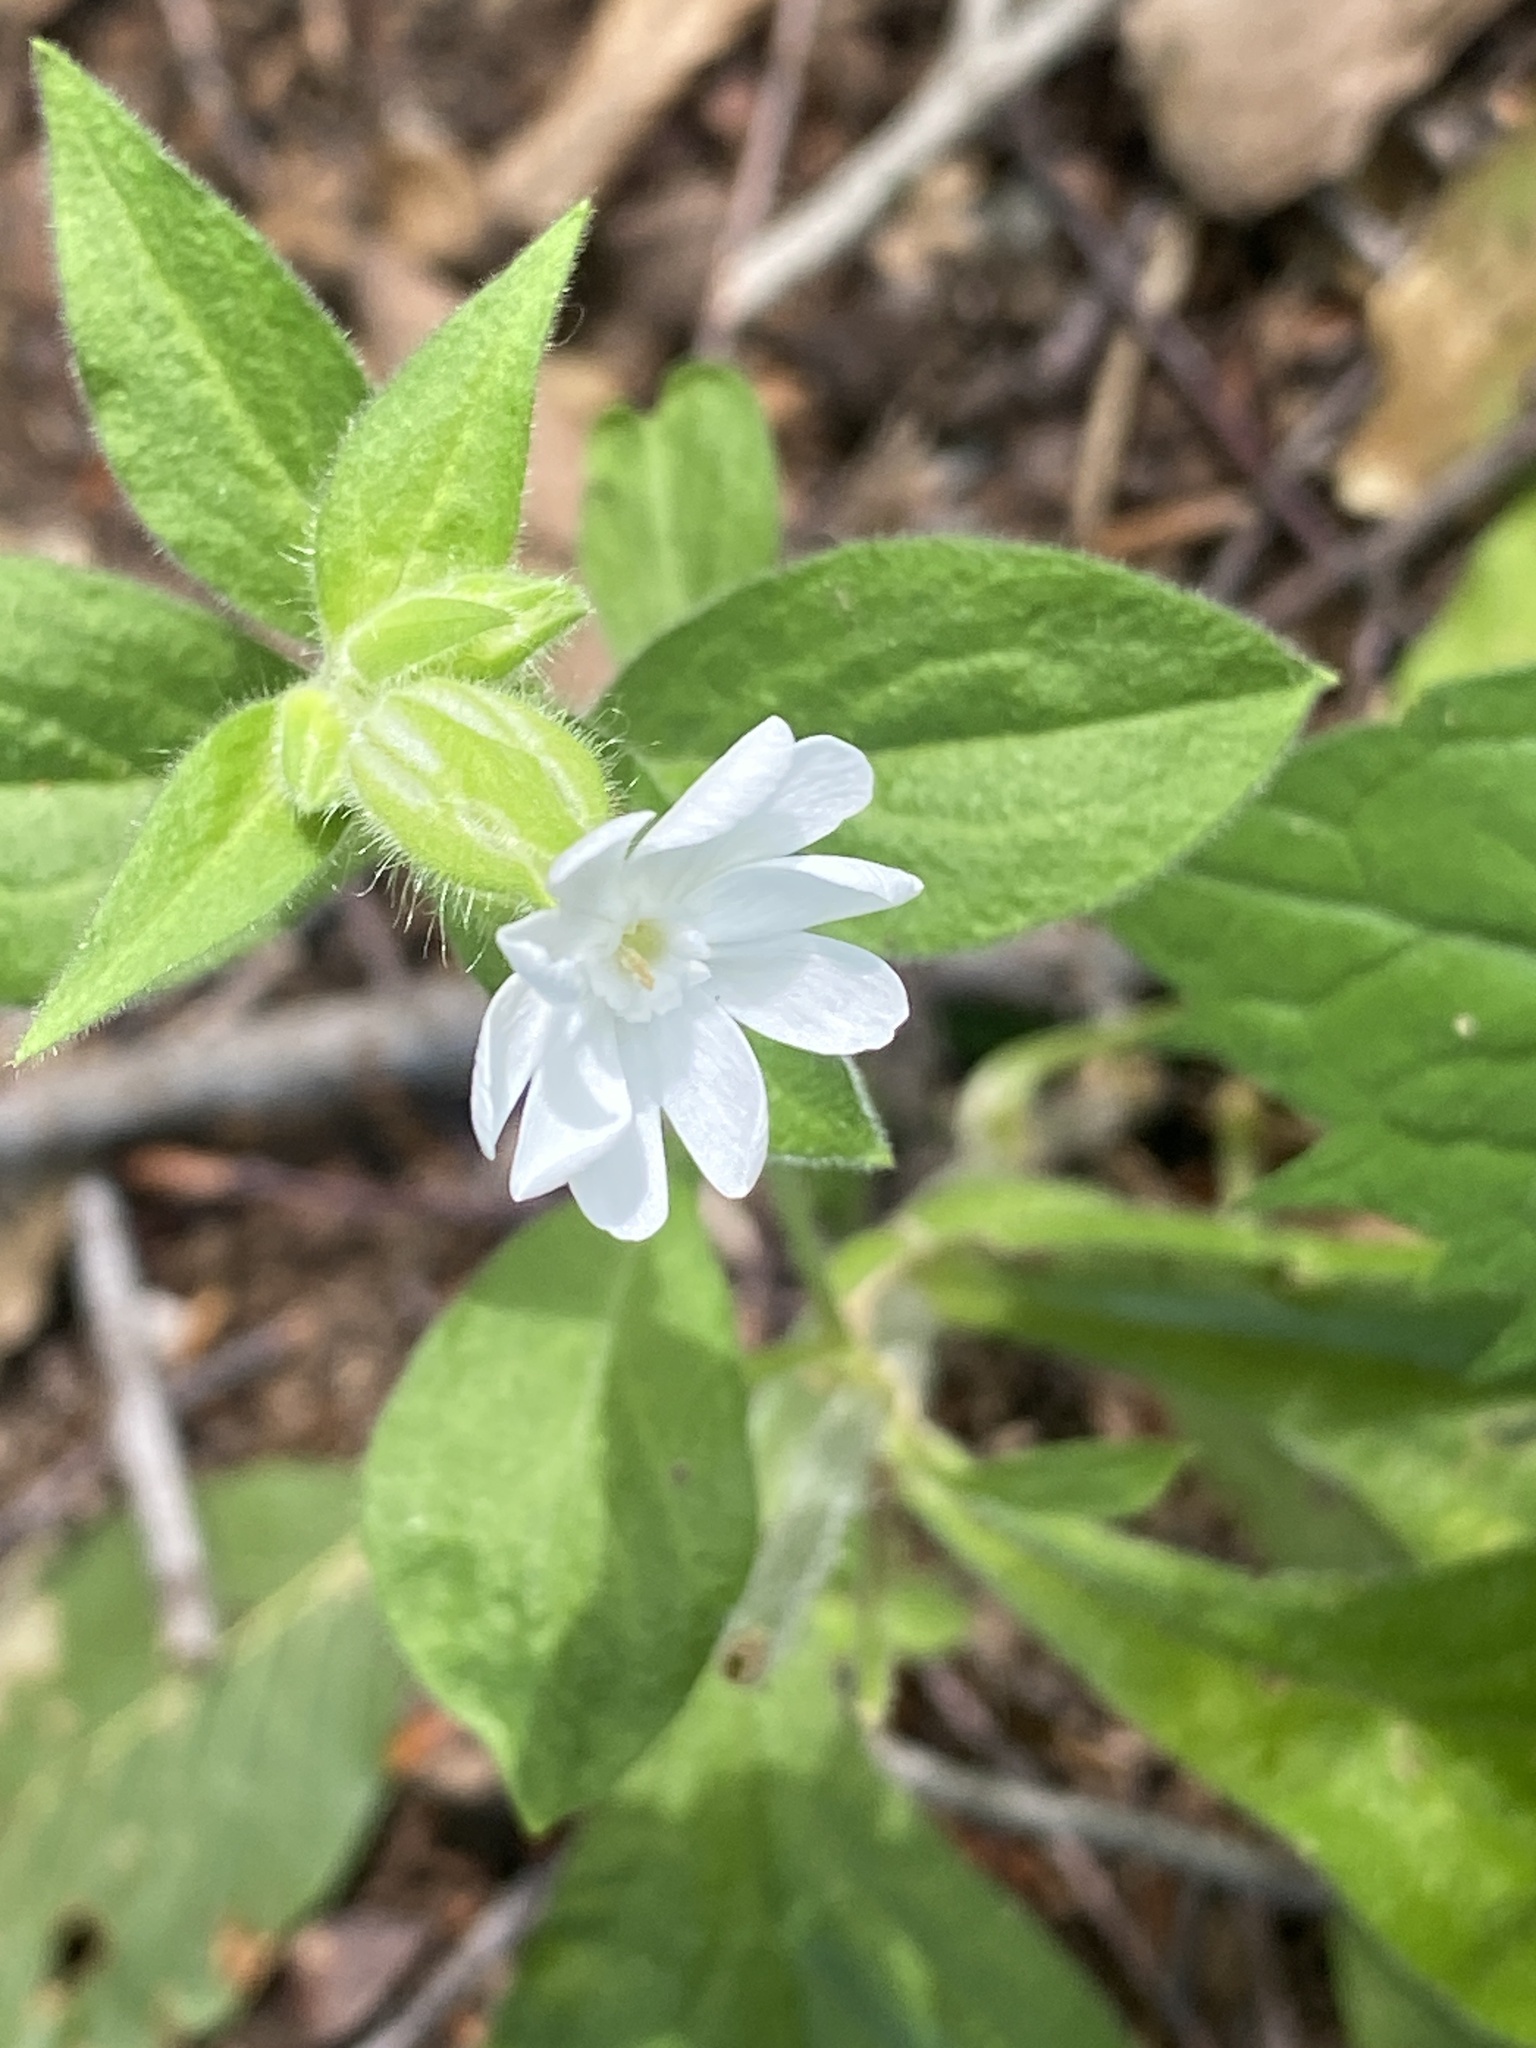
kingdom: Plantae
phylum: Tracheophyta
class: Magnoliopsida
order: Caryophyllales
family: Caryophyllaceae
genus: Silene
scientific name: Silene latifolia
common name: White campion
